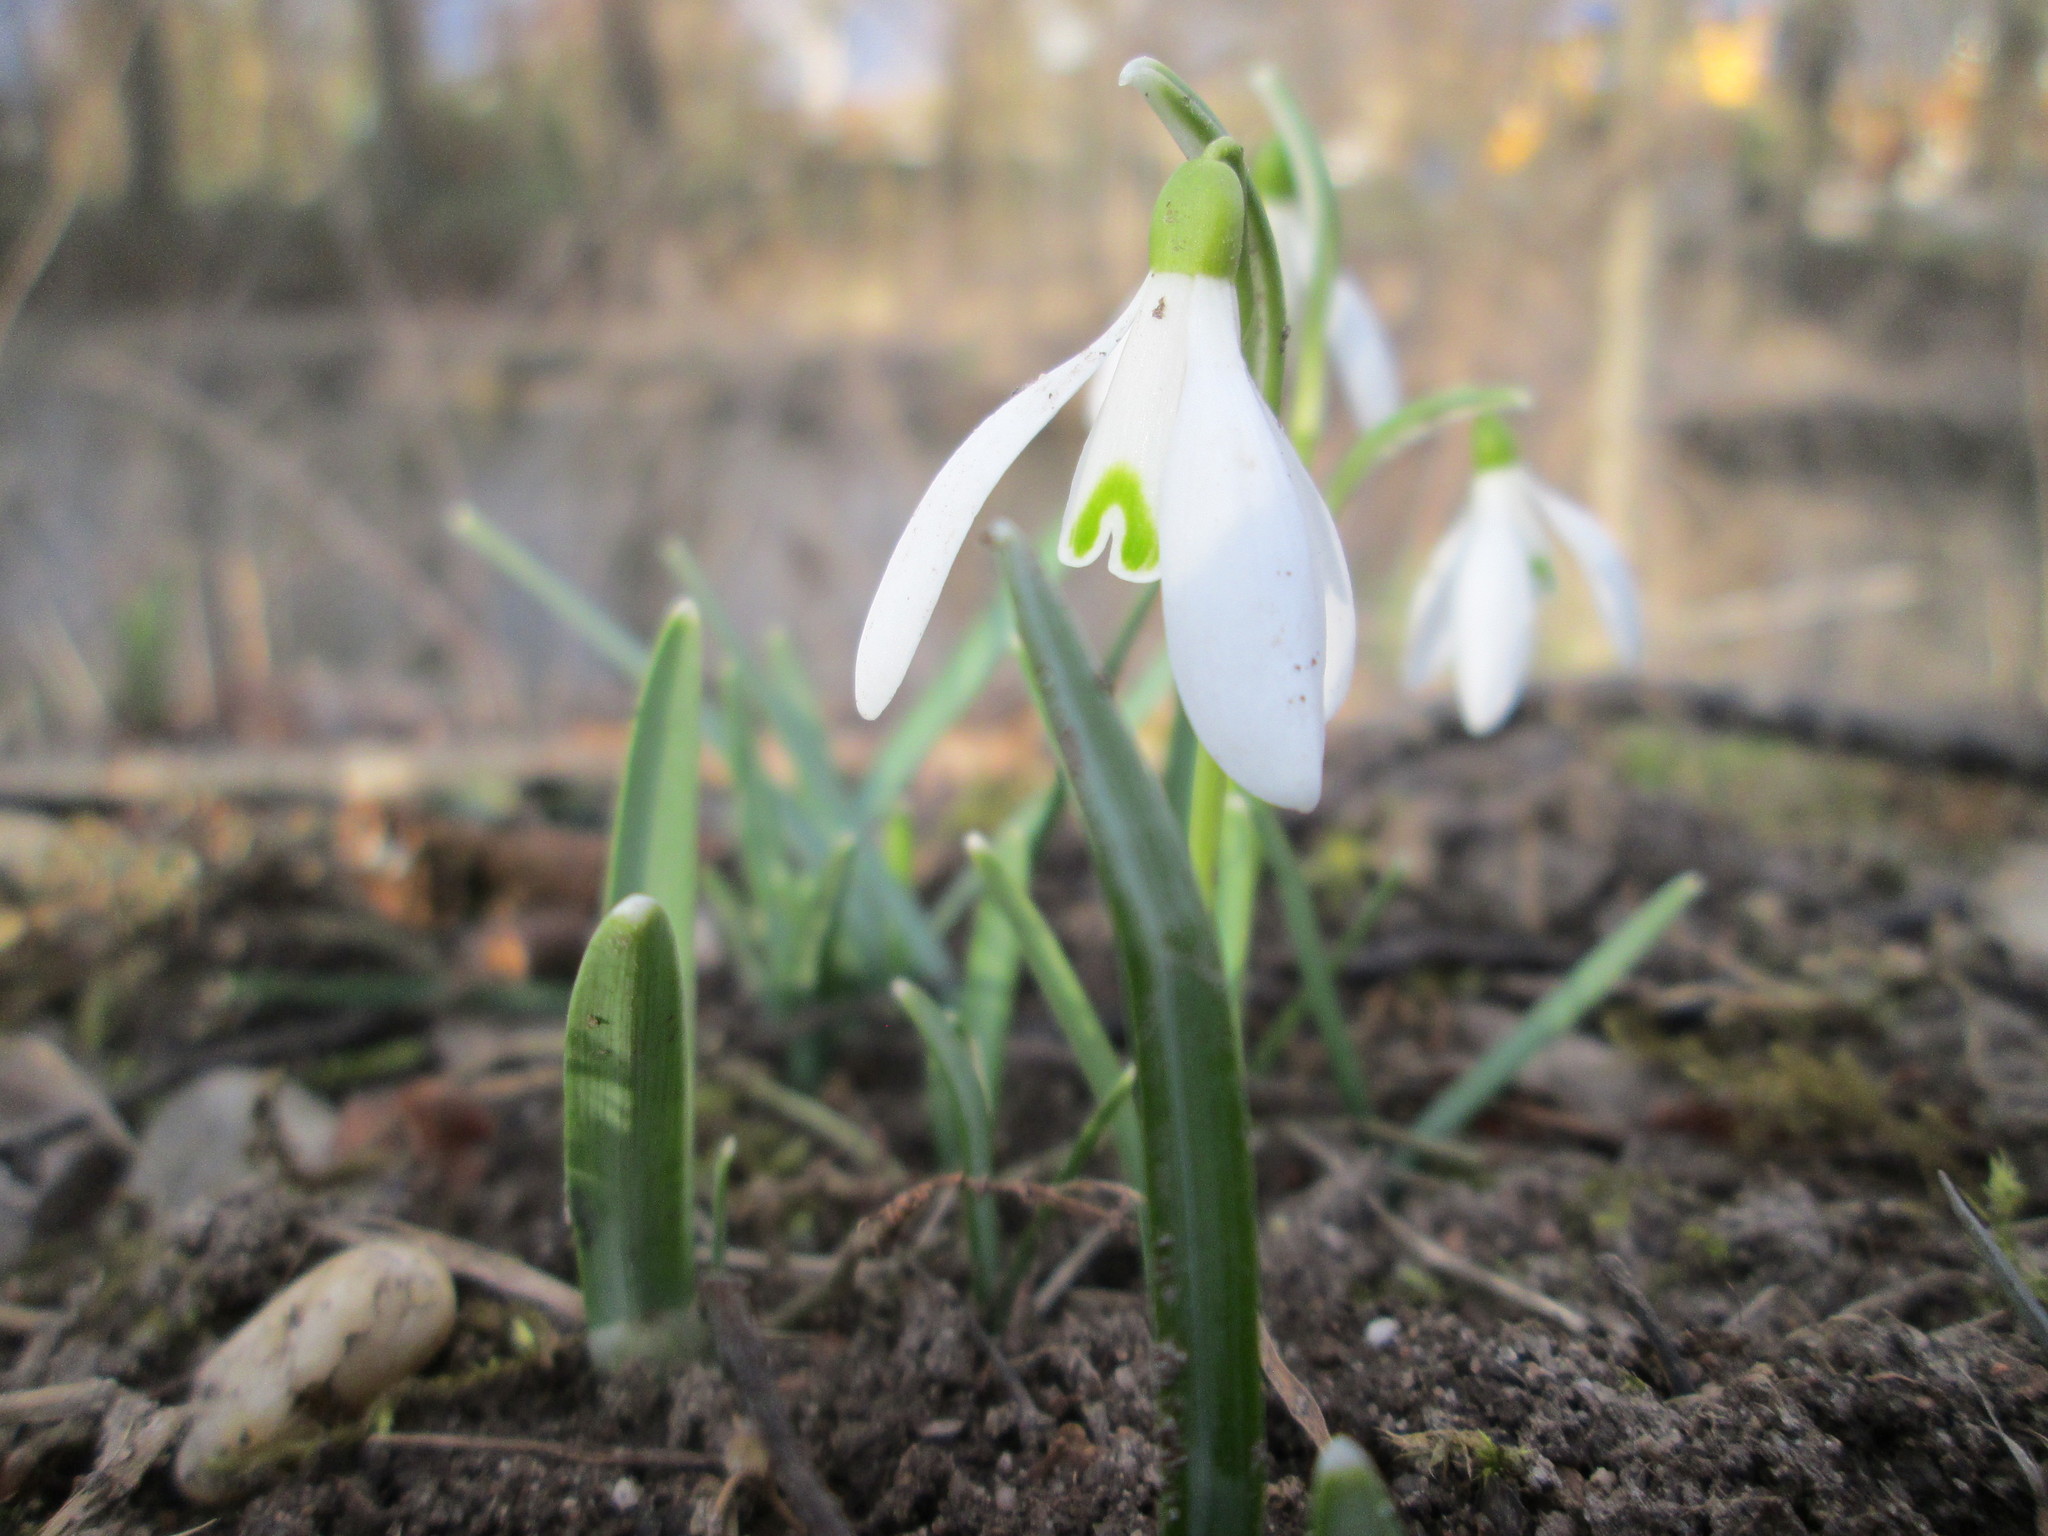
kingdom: Plantae
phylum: Tracheophyta
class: Liliopsida
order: Asparagales
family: Amaryllidaceae
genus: Galanthus
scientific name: Galanthus nivalis
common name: Snowdrop
